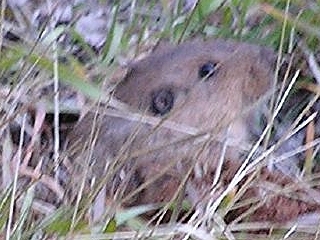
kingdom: Animalia
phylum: Chordata
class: Mammalia
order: Rodentia
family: Geomyidae
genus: Thomomys
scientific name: Thomomys bottae
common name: Botta's pocket gopher
